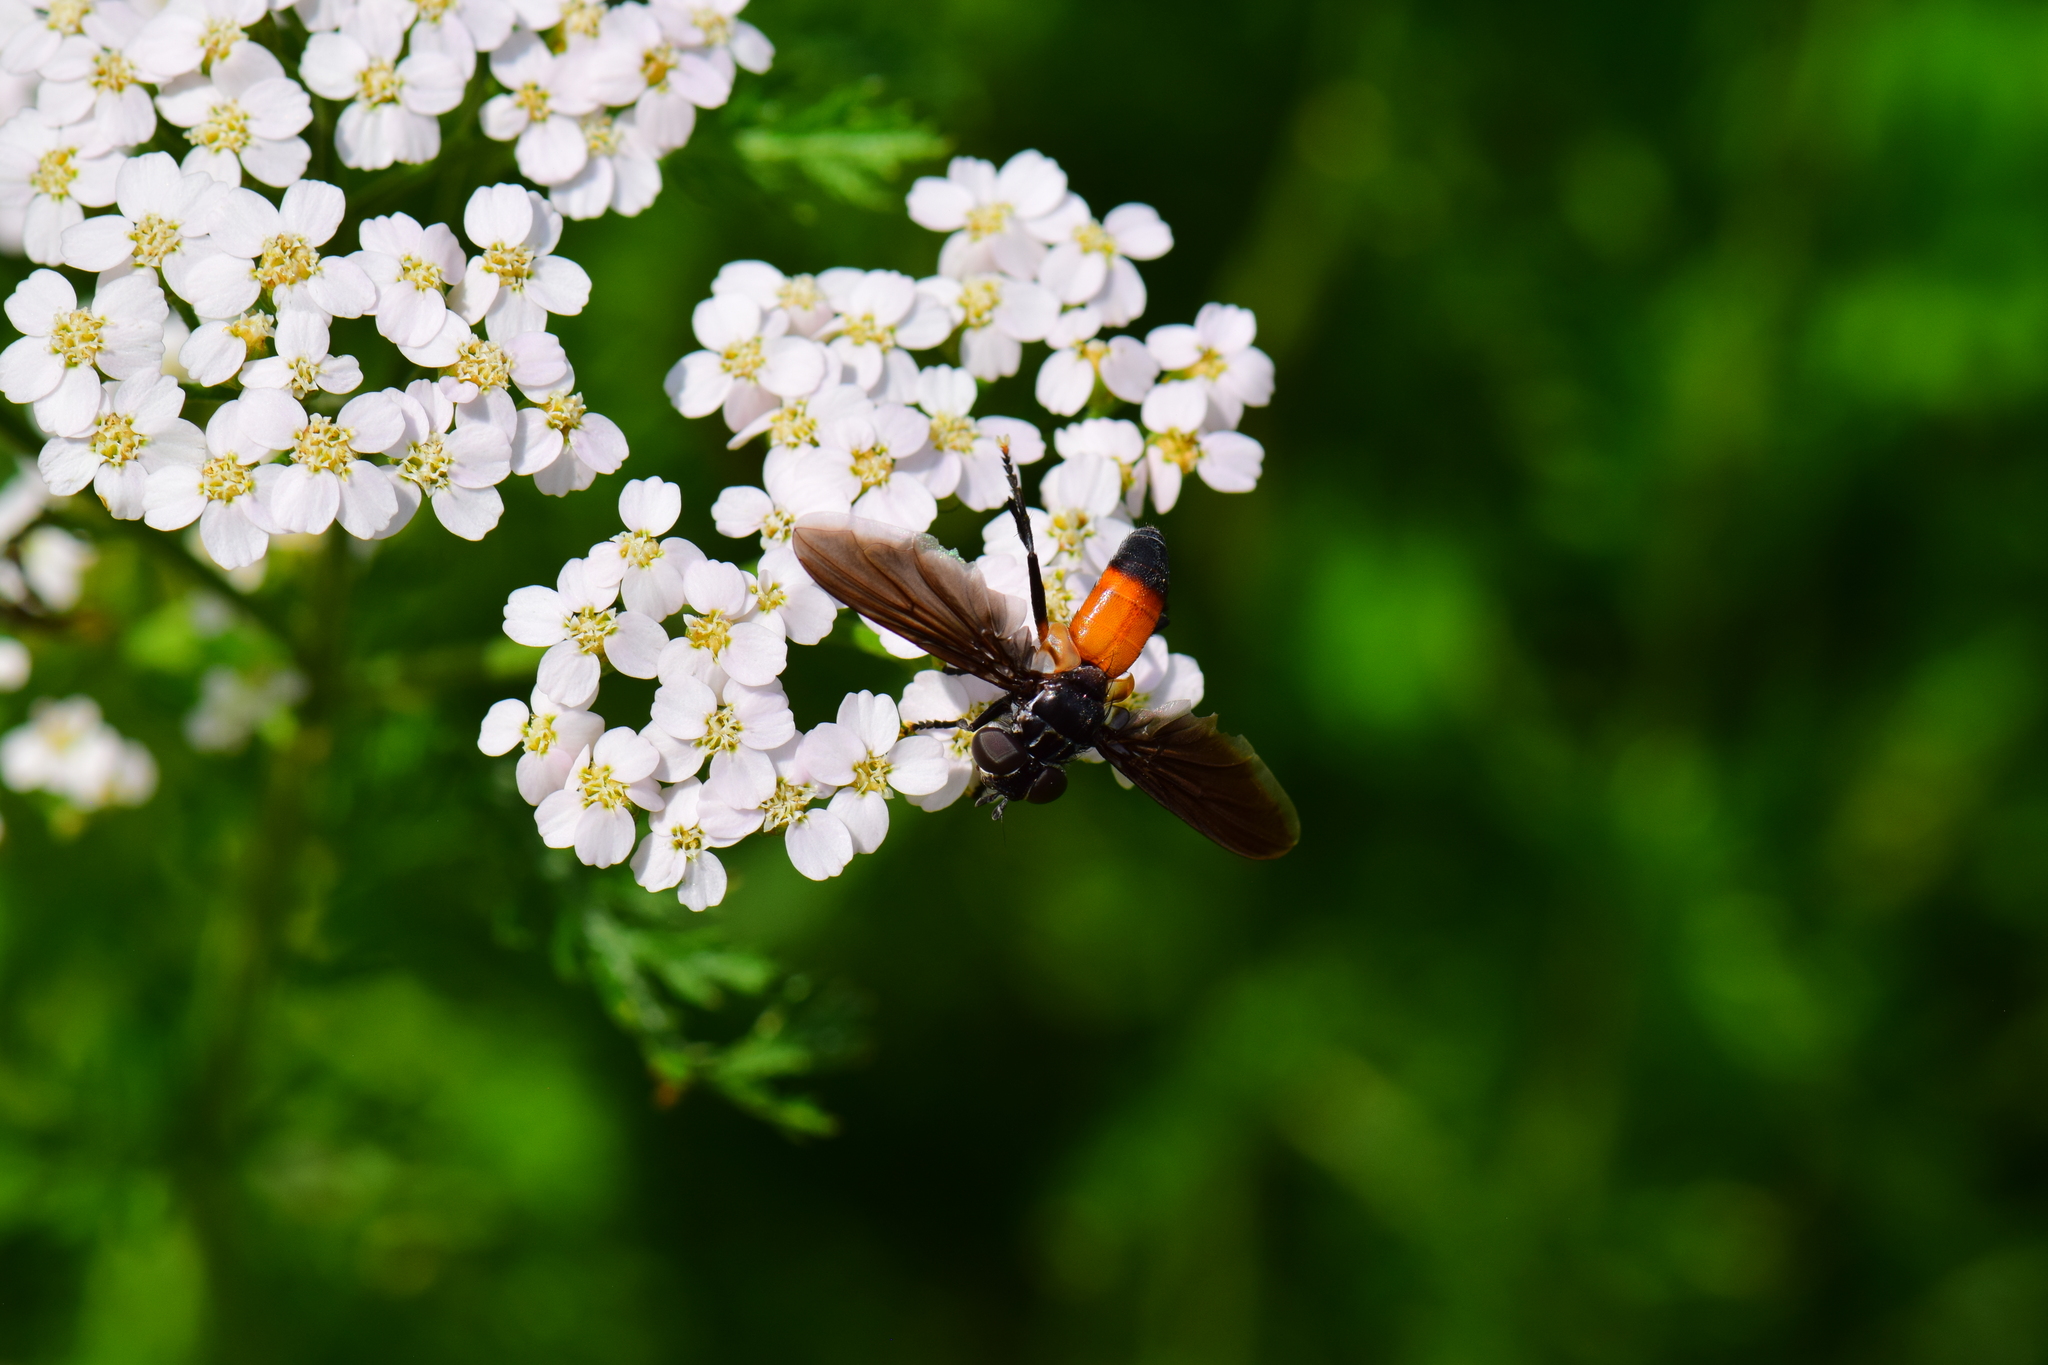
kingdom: Animalia
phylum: Arthropoda
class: Insecta
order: Diptera
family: Tachinidae
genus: Trichopoda
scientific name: Trichopoda pennipes
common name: Tachinid fly
